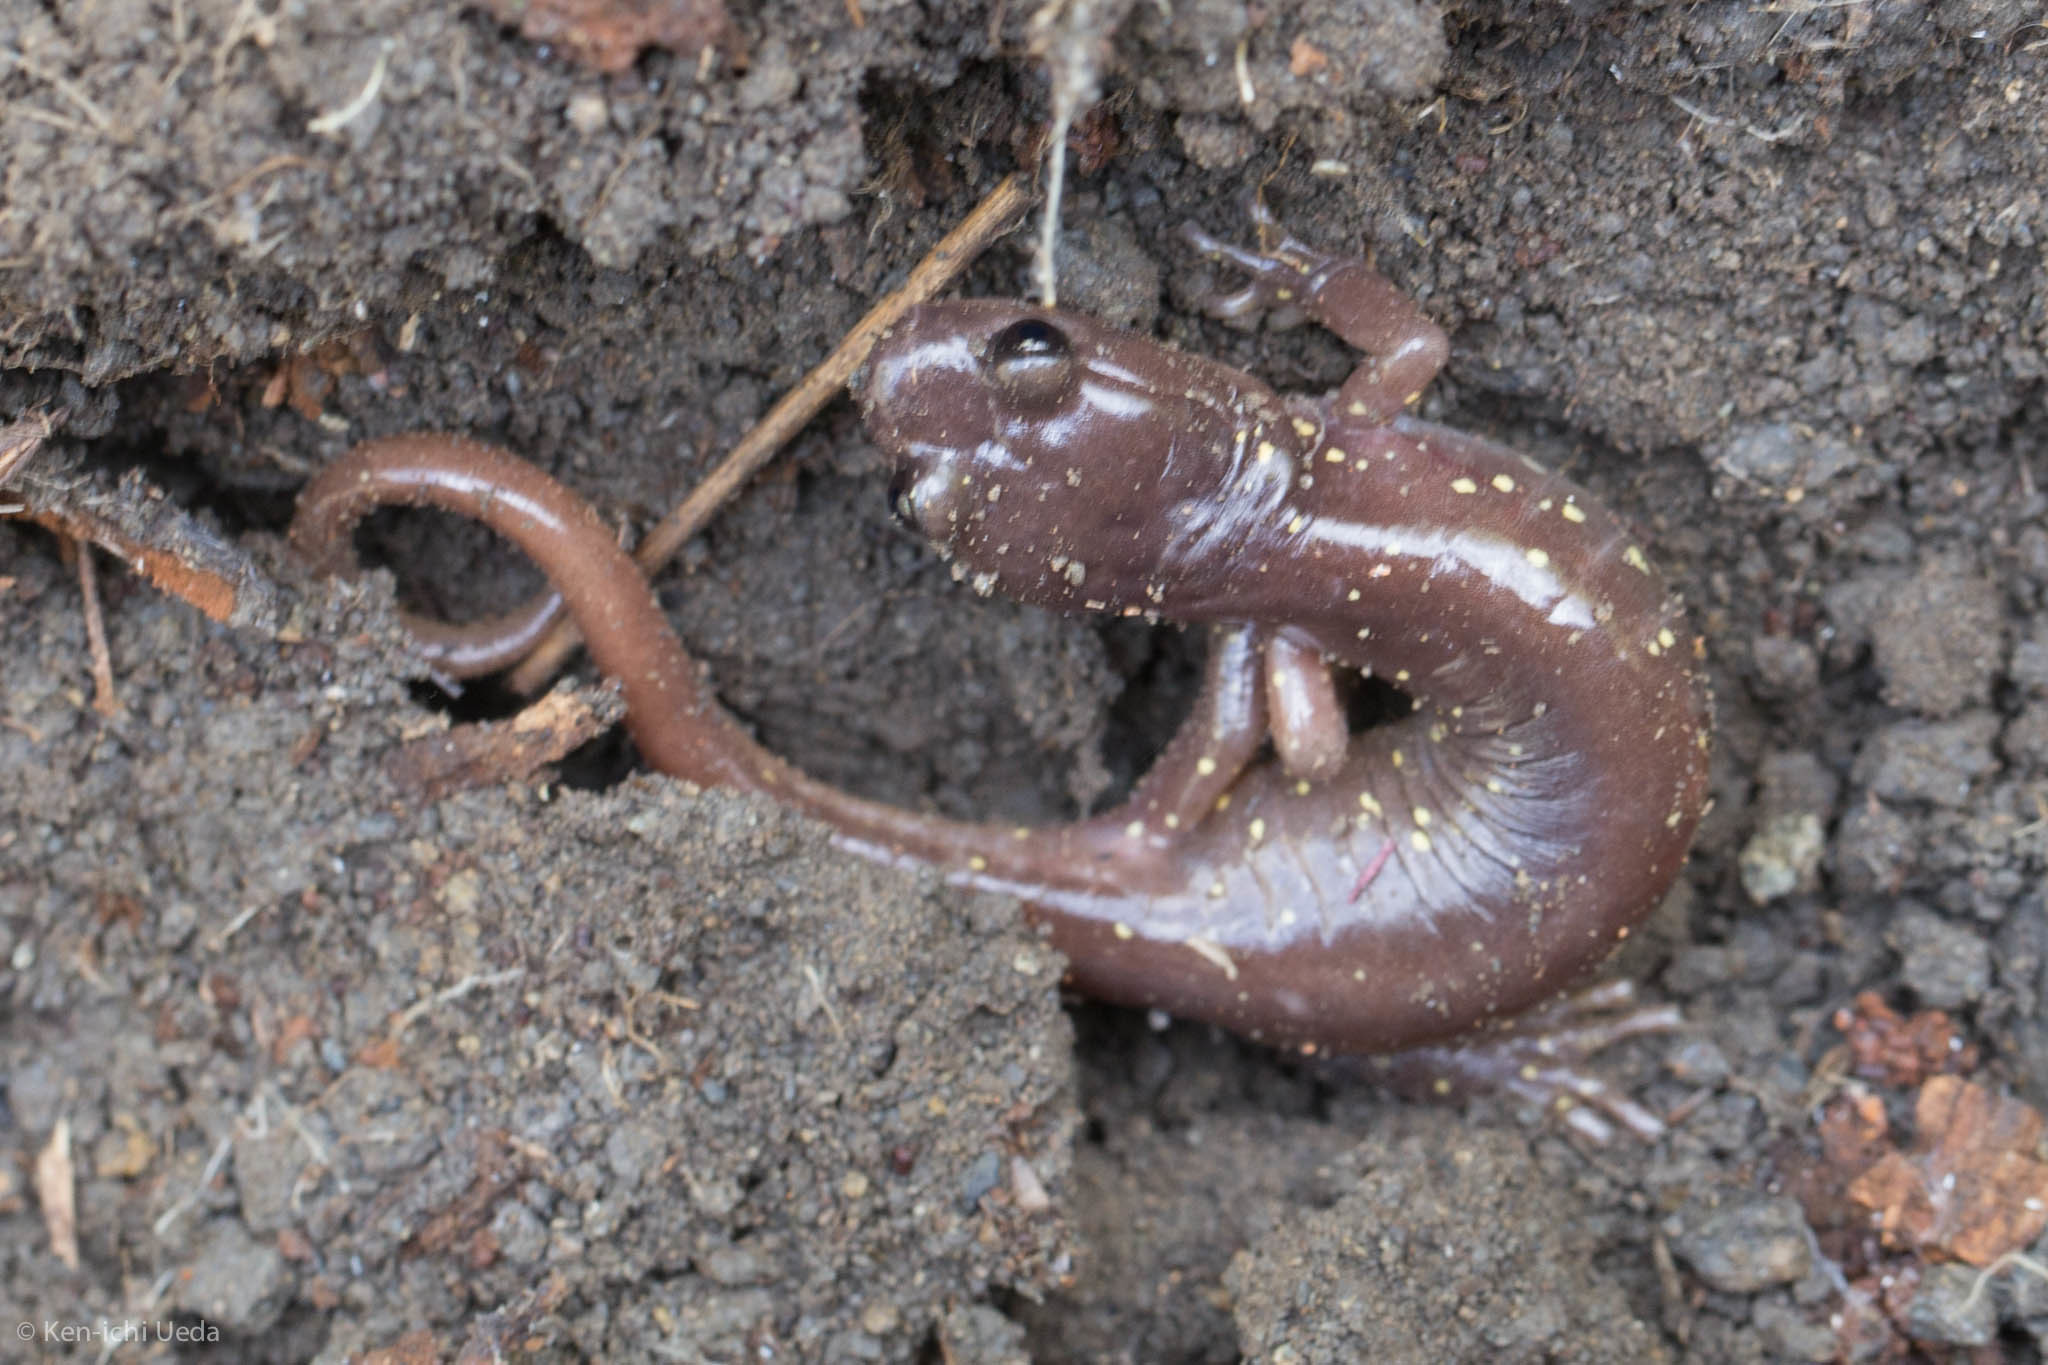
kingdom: Animalia
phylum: Chordata
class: Amphibia
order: Caudata
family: Plethodontidae
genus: Aneides
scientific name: Aneides lugubris
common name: Arboreal salamander
